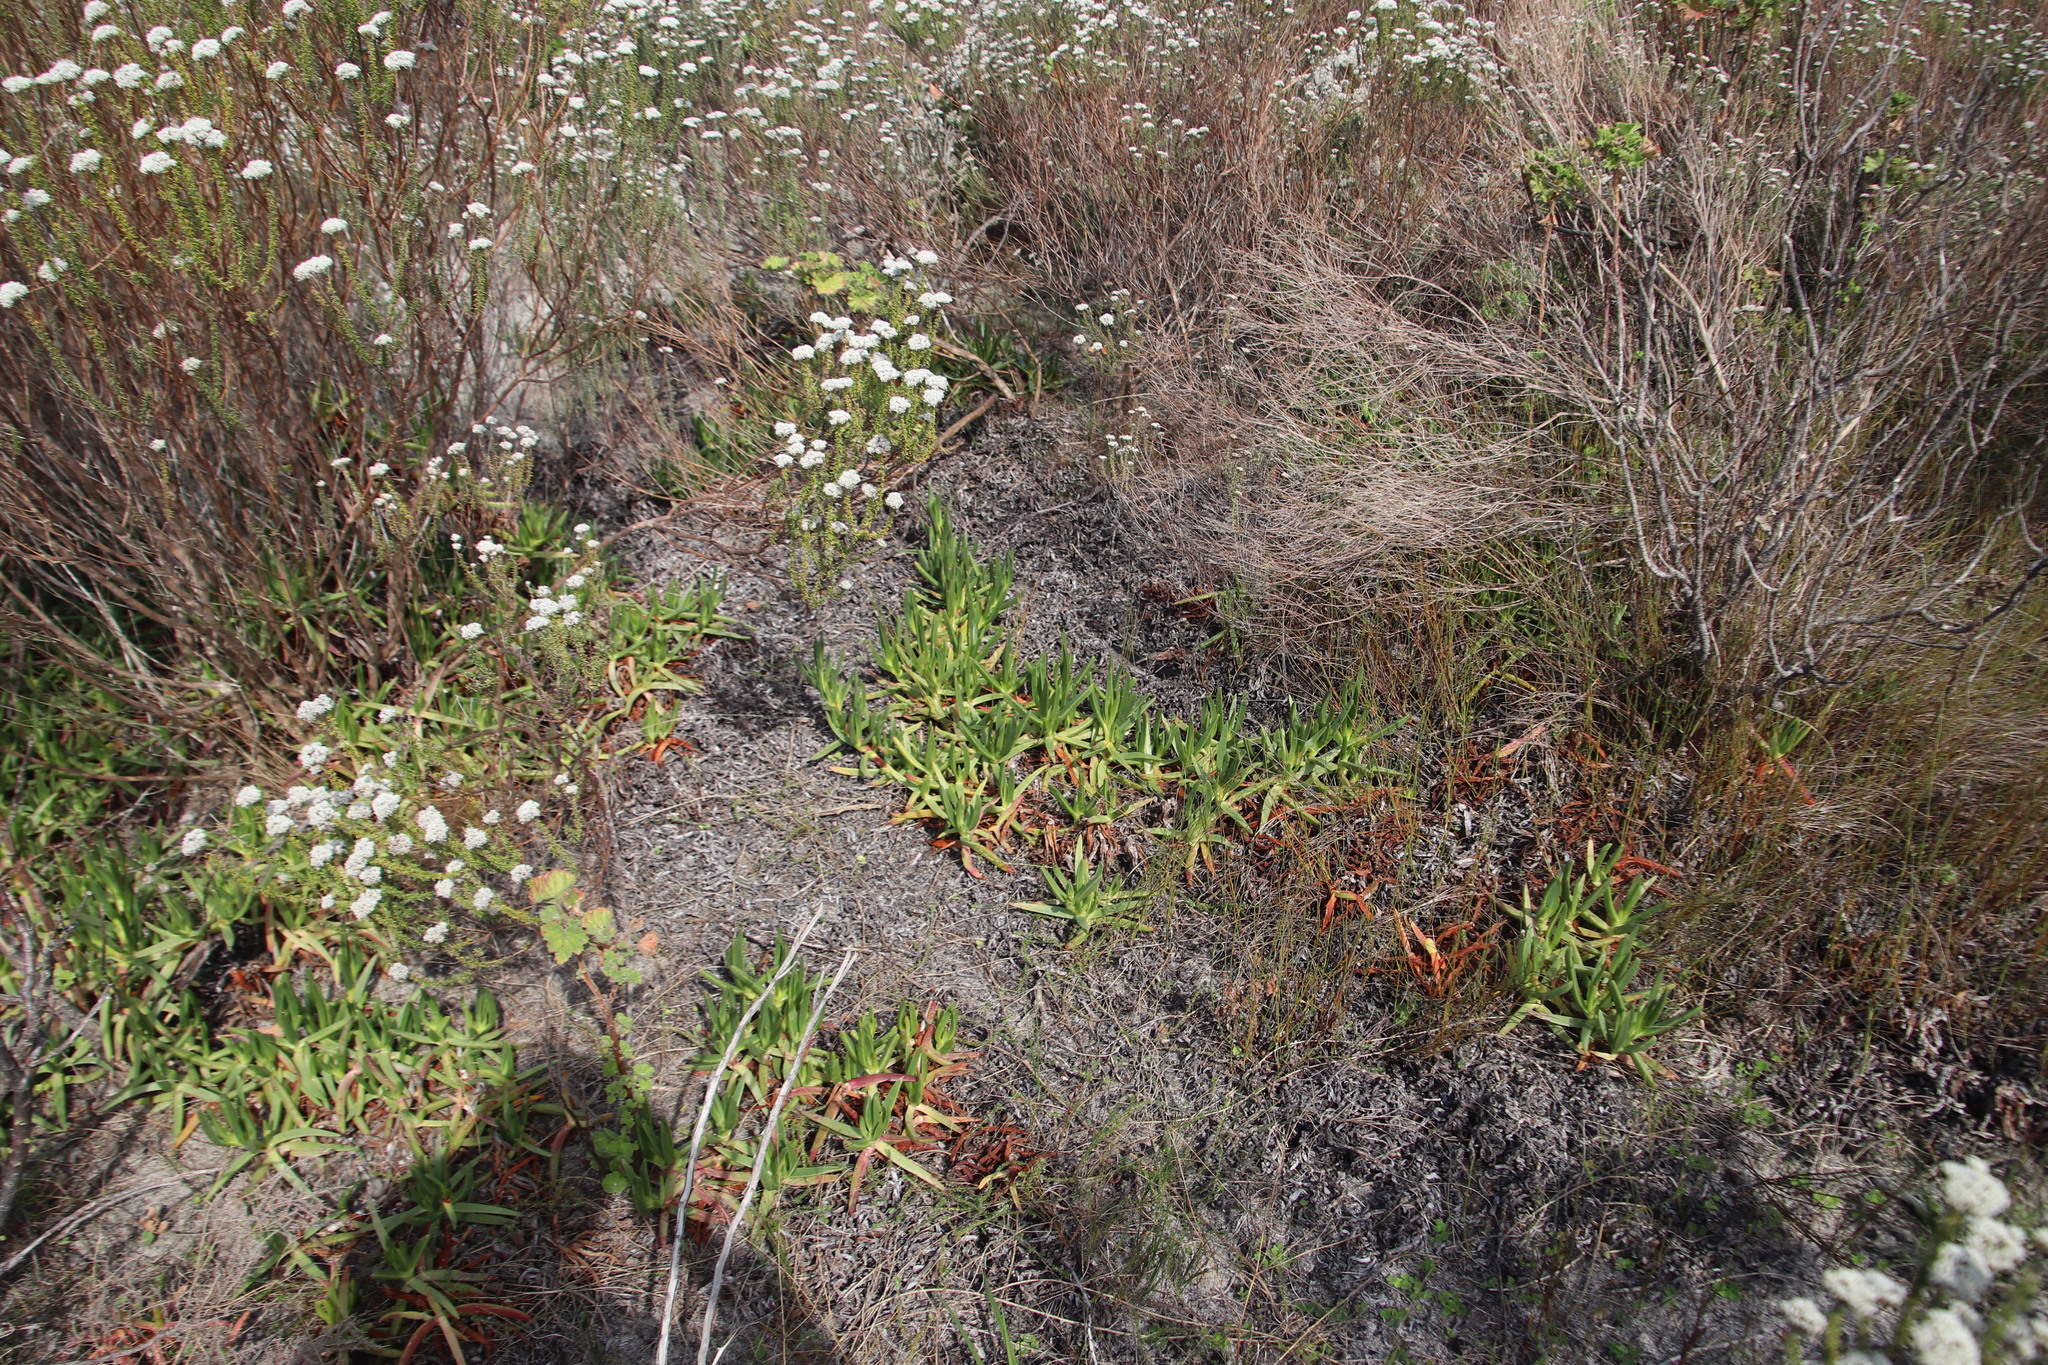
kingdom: Plantae
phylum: Tracheophyta
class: Magnoliopsida
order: Caryophyllales
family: Aizoaceae
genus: Carpobrotus
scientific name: Carpobrotus edulis
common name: Hottentot-fig
